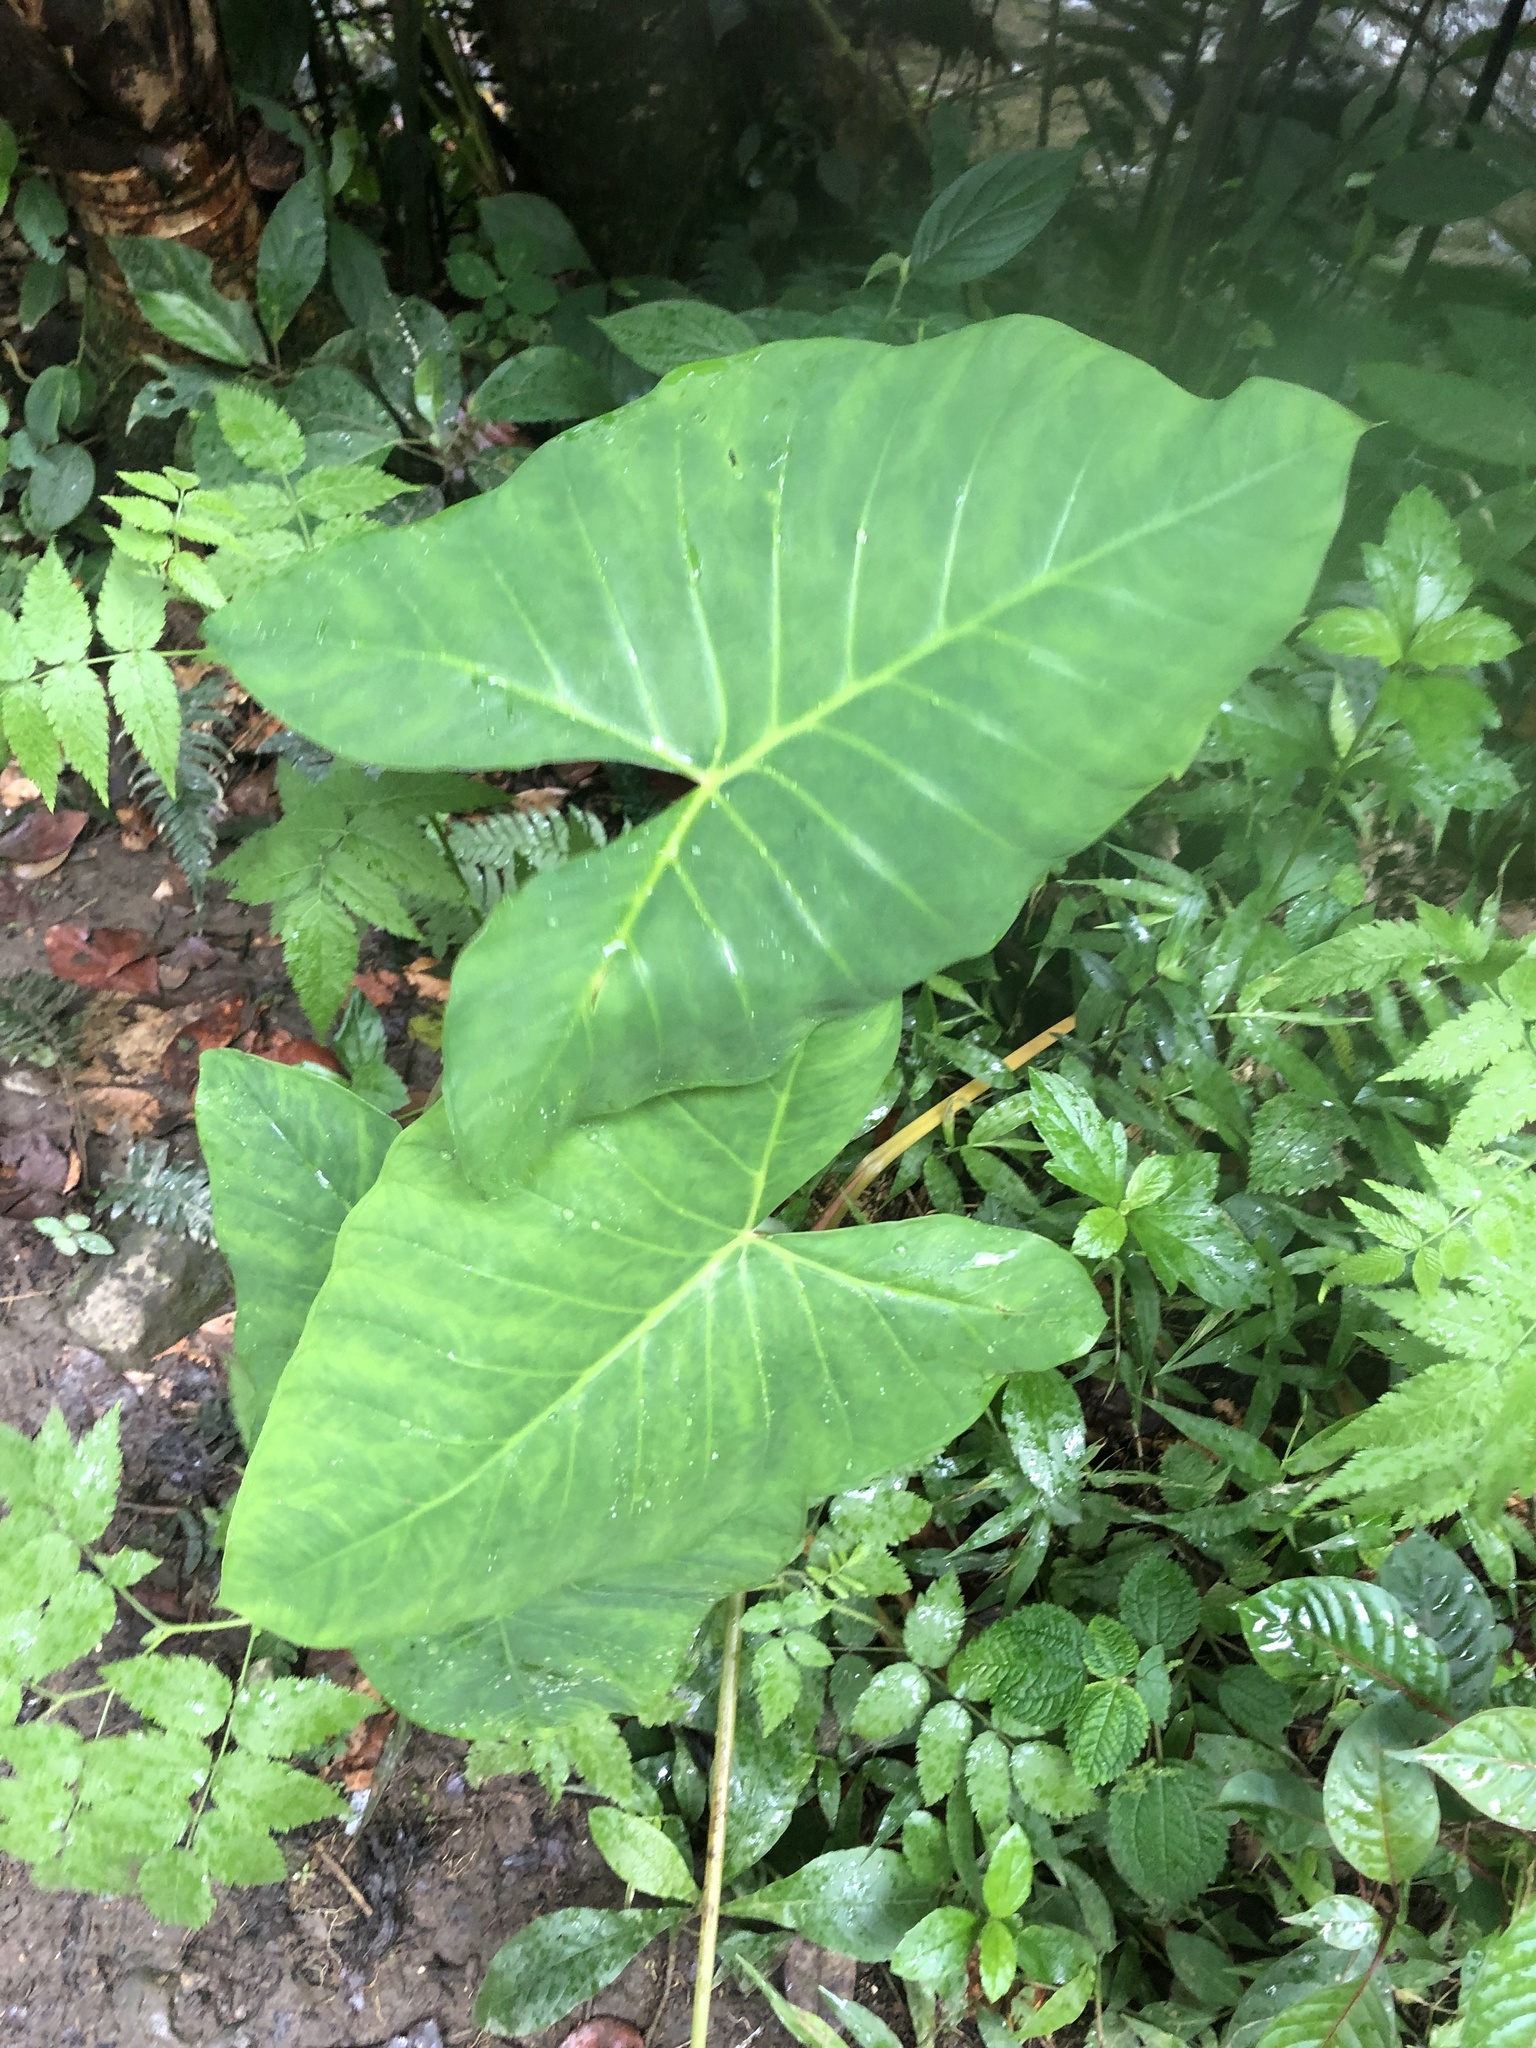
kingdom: Plantae
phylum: Tracheophyta
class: Liliopsida
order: Alismatales
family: Araceae
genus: Xanthosoma
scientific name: Xanthosoma sagittifolium
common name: Arrowleaf elephant's ear
